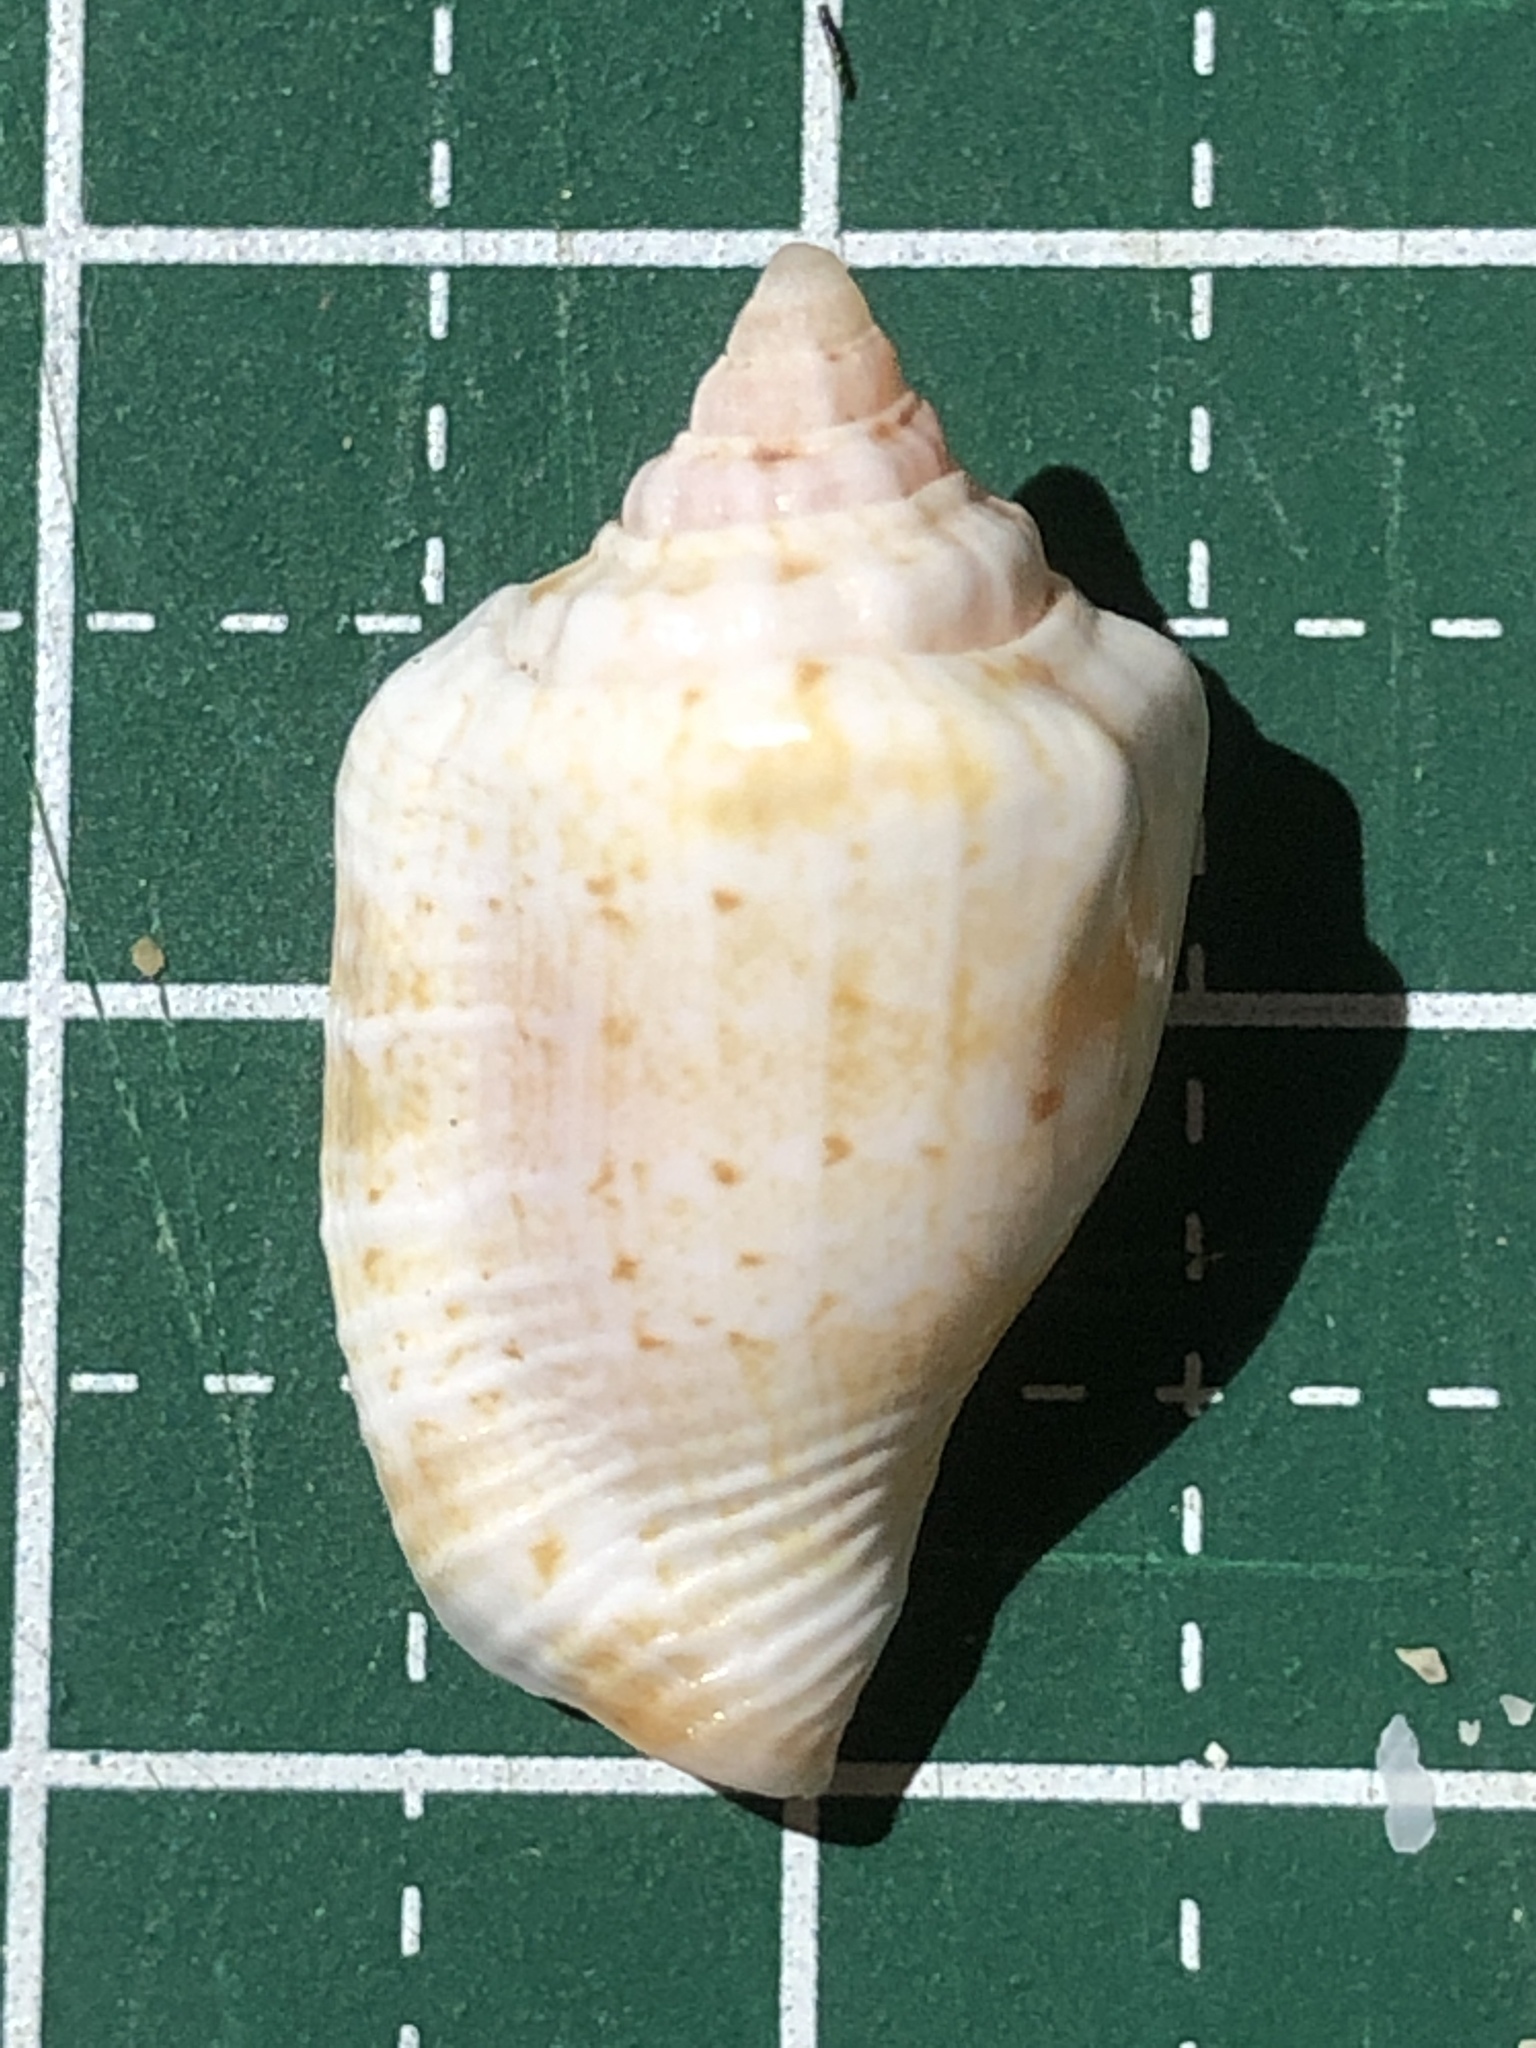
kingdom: Animalia
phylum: Mollusca
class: Gastropoda
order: Littorinimorpha
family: Strombidae
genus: Canarium
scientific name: Canarium mutabile
